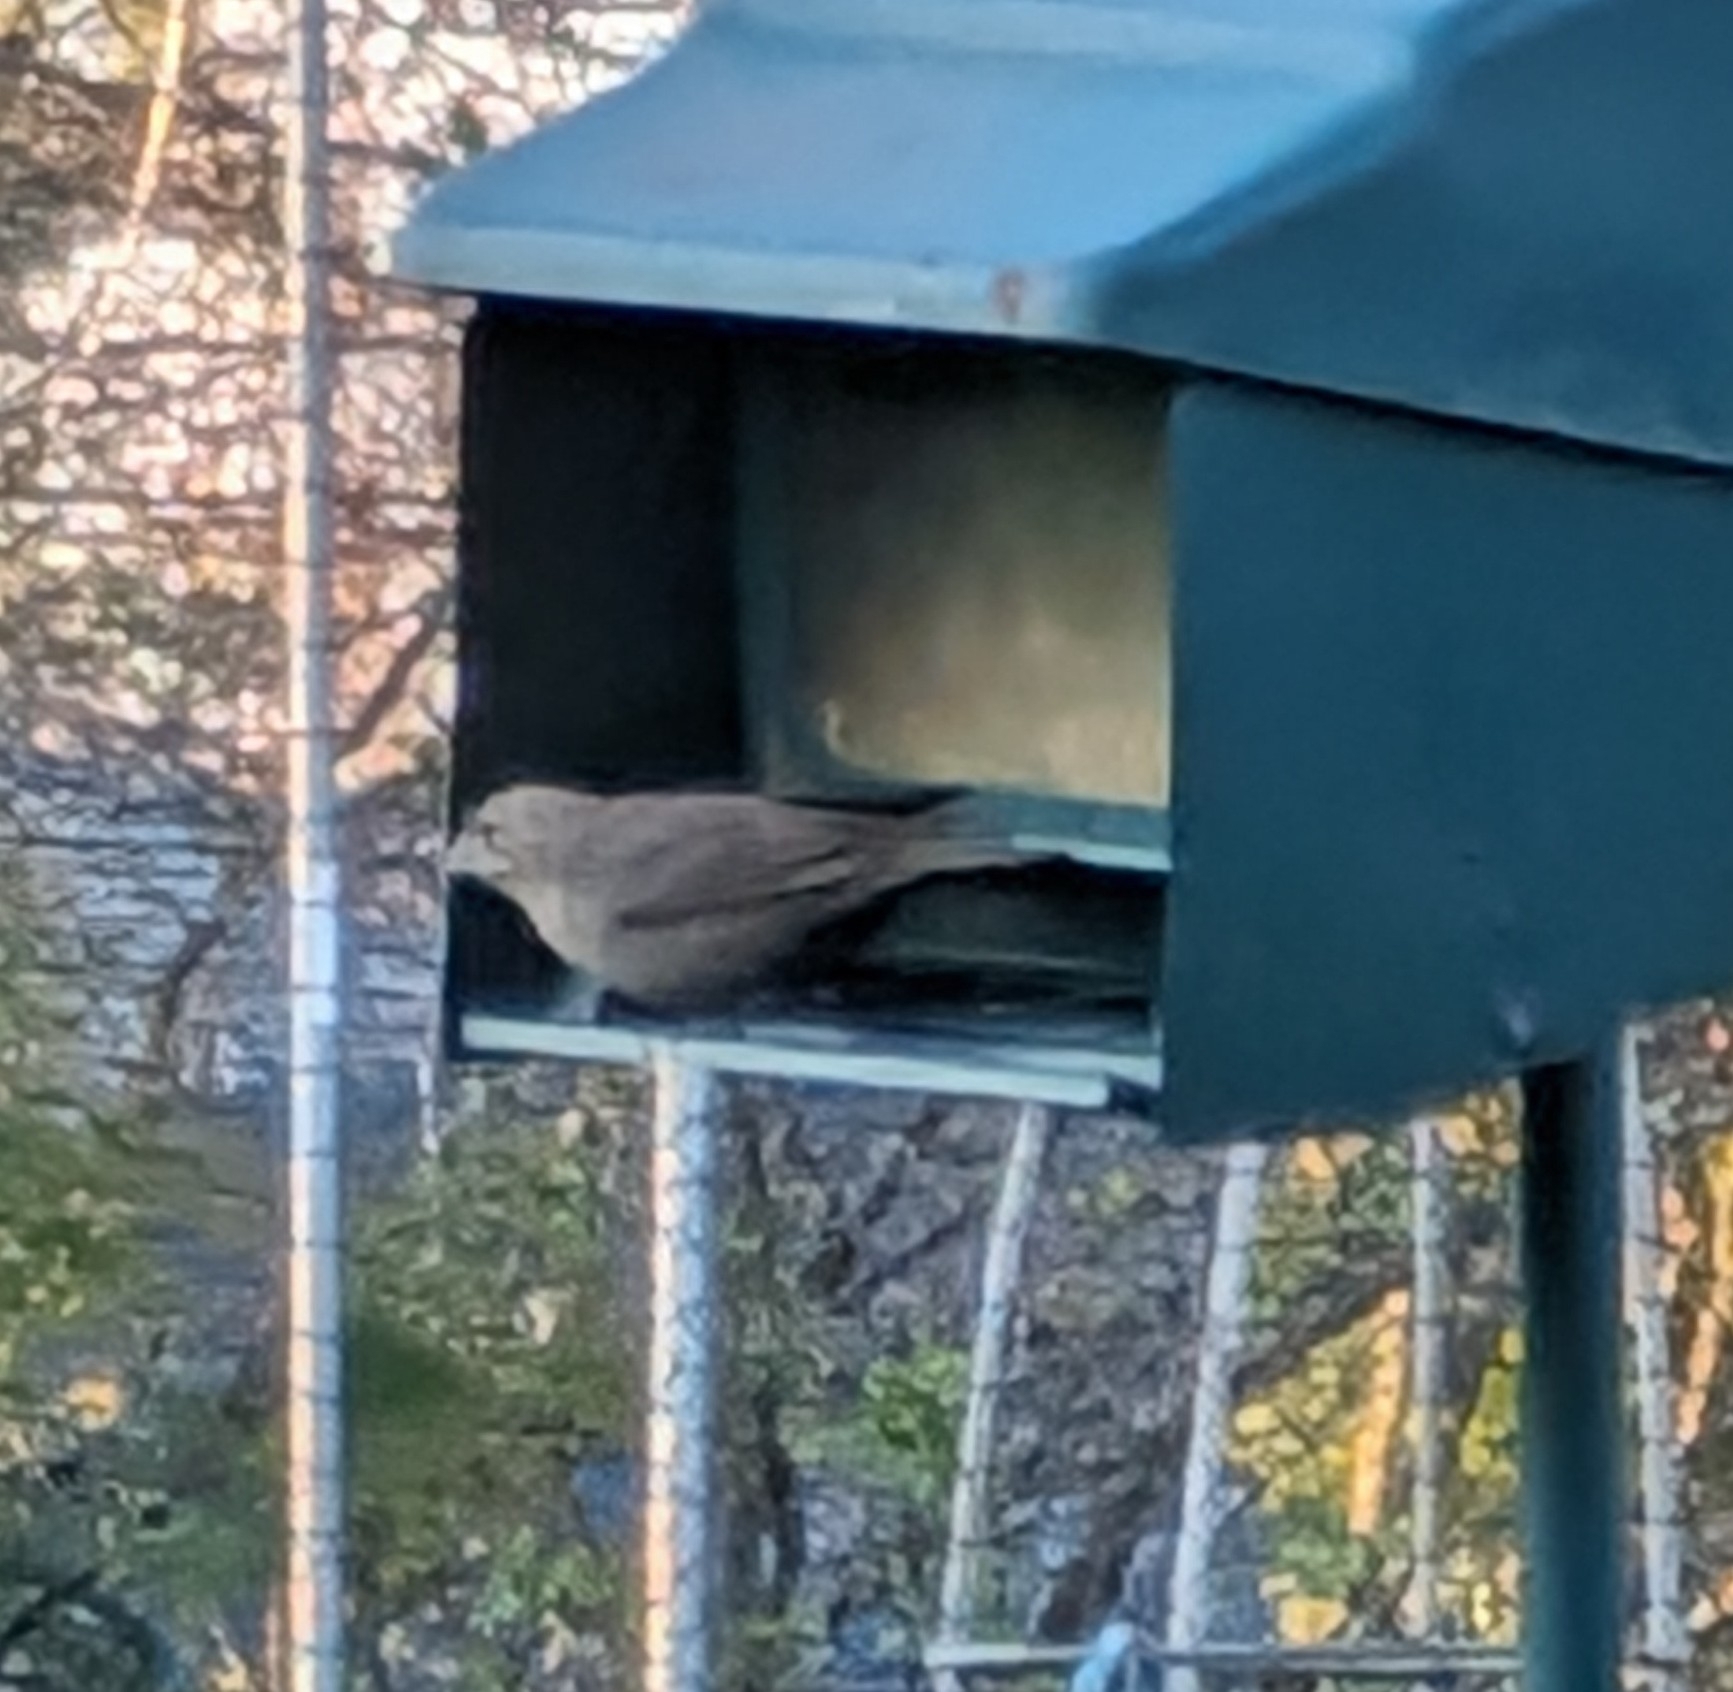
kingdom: Animalia
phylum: Chordata
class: Aves
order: Passeriformes
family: Icteridae
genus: Molothrus
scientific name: Molothrus ater
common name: Brown-headed cowbird
